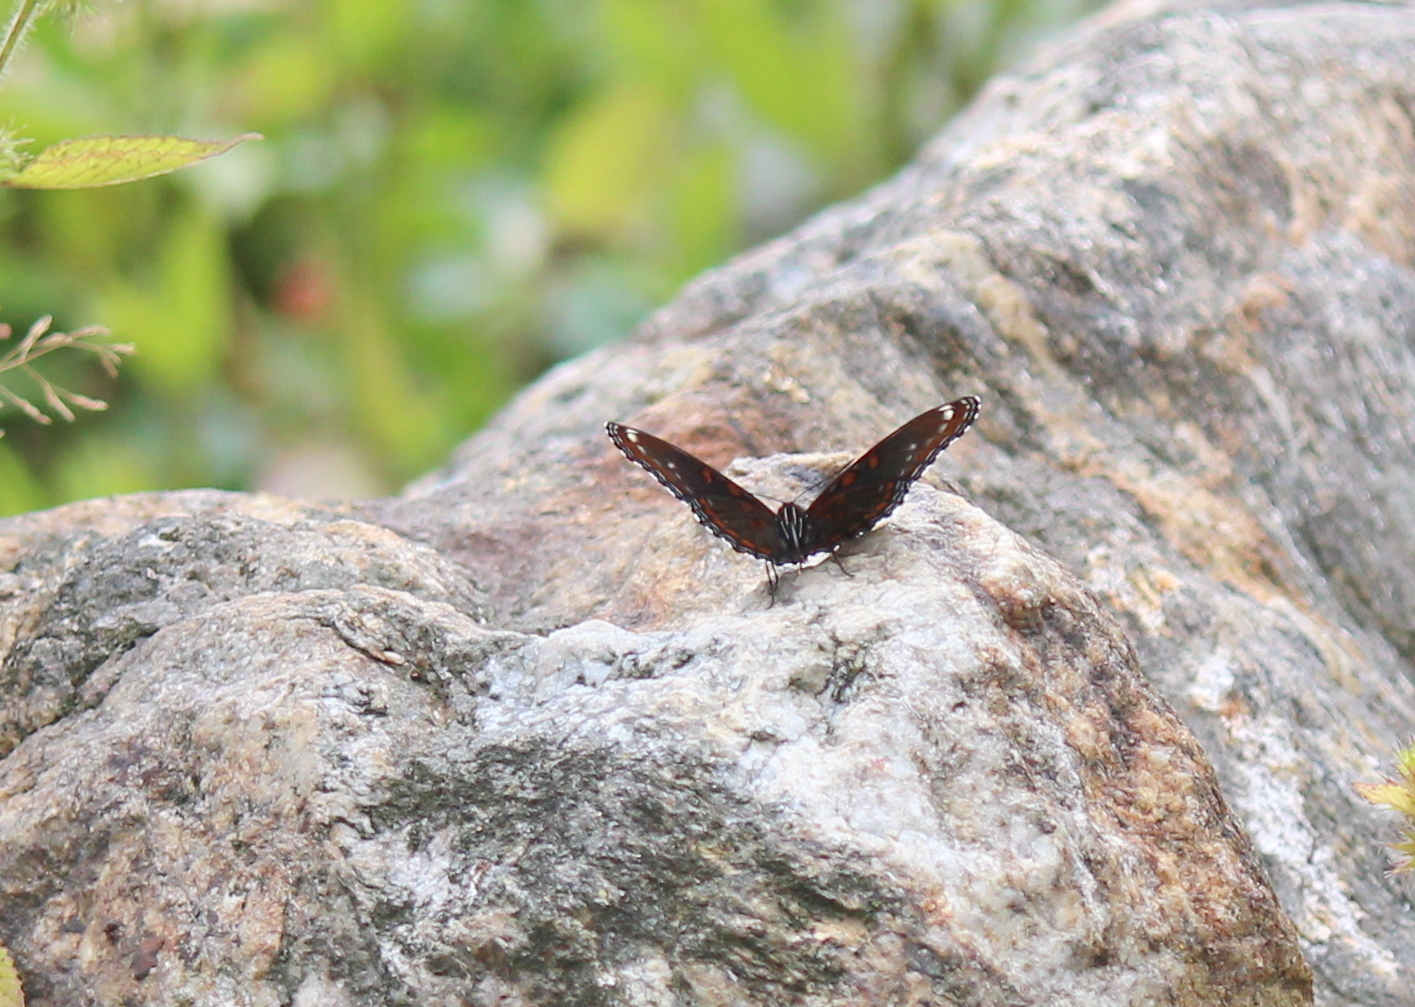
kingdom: Animalia
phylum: Arthropoda
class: Insecta
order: Lepidoptera
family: Nymphalidae
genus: Limenitis
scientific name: Limenitis arthemis
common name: Red-spotted admiral
